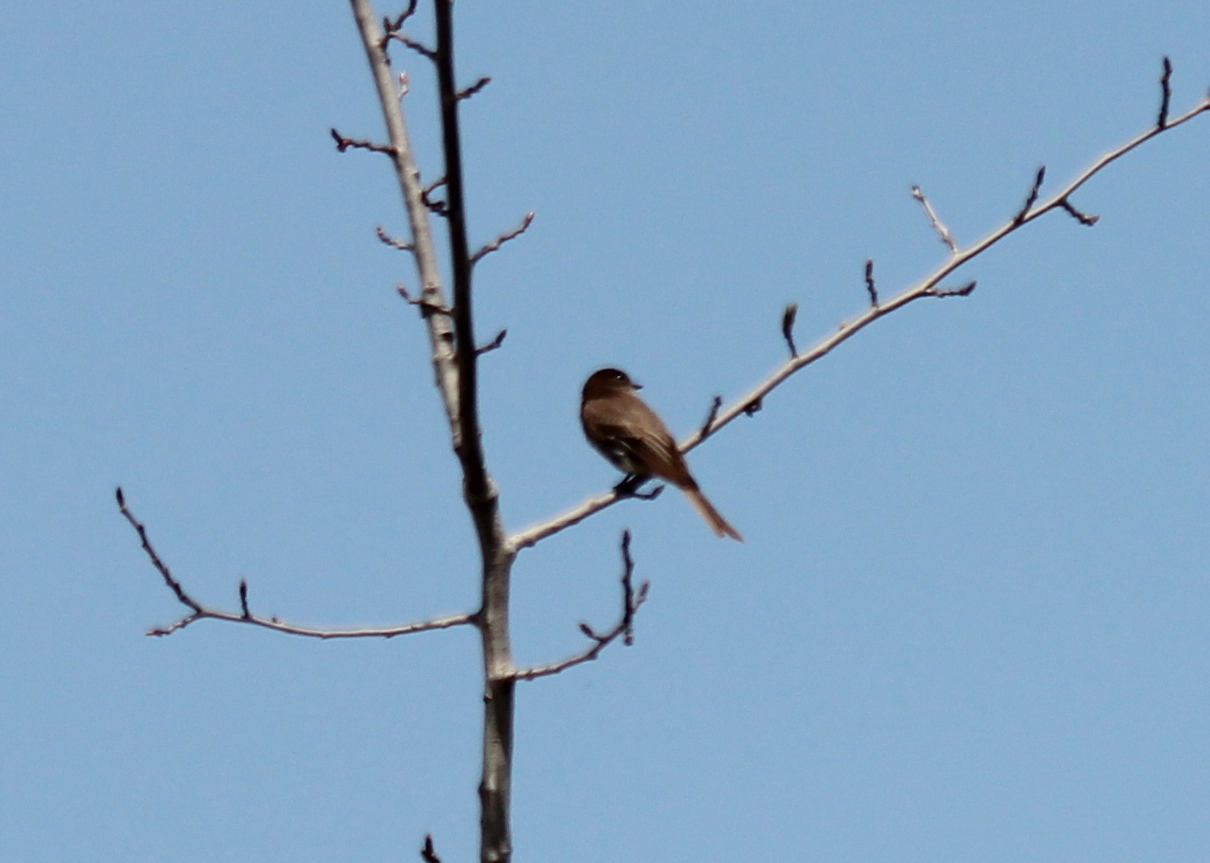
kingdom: Animalia
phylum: Chordata
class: Aves
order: Passeriformes
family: Tyrannidae
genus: Sayornis
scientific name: Sayornis phoebe
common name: Eastern phoebe
